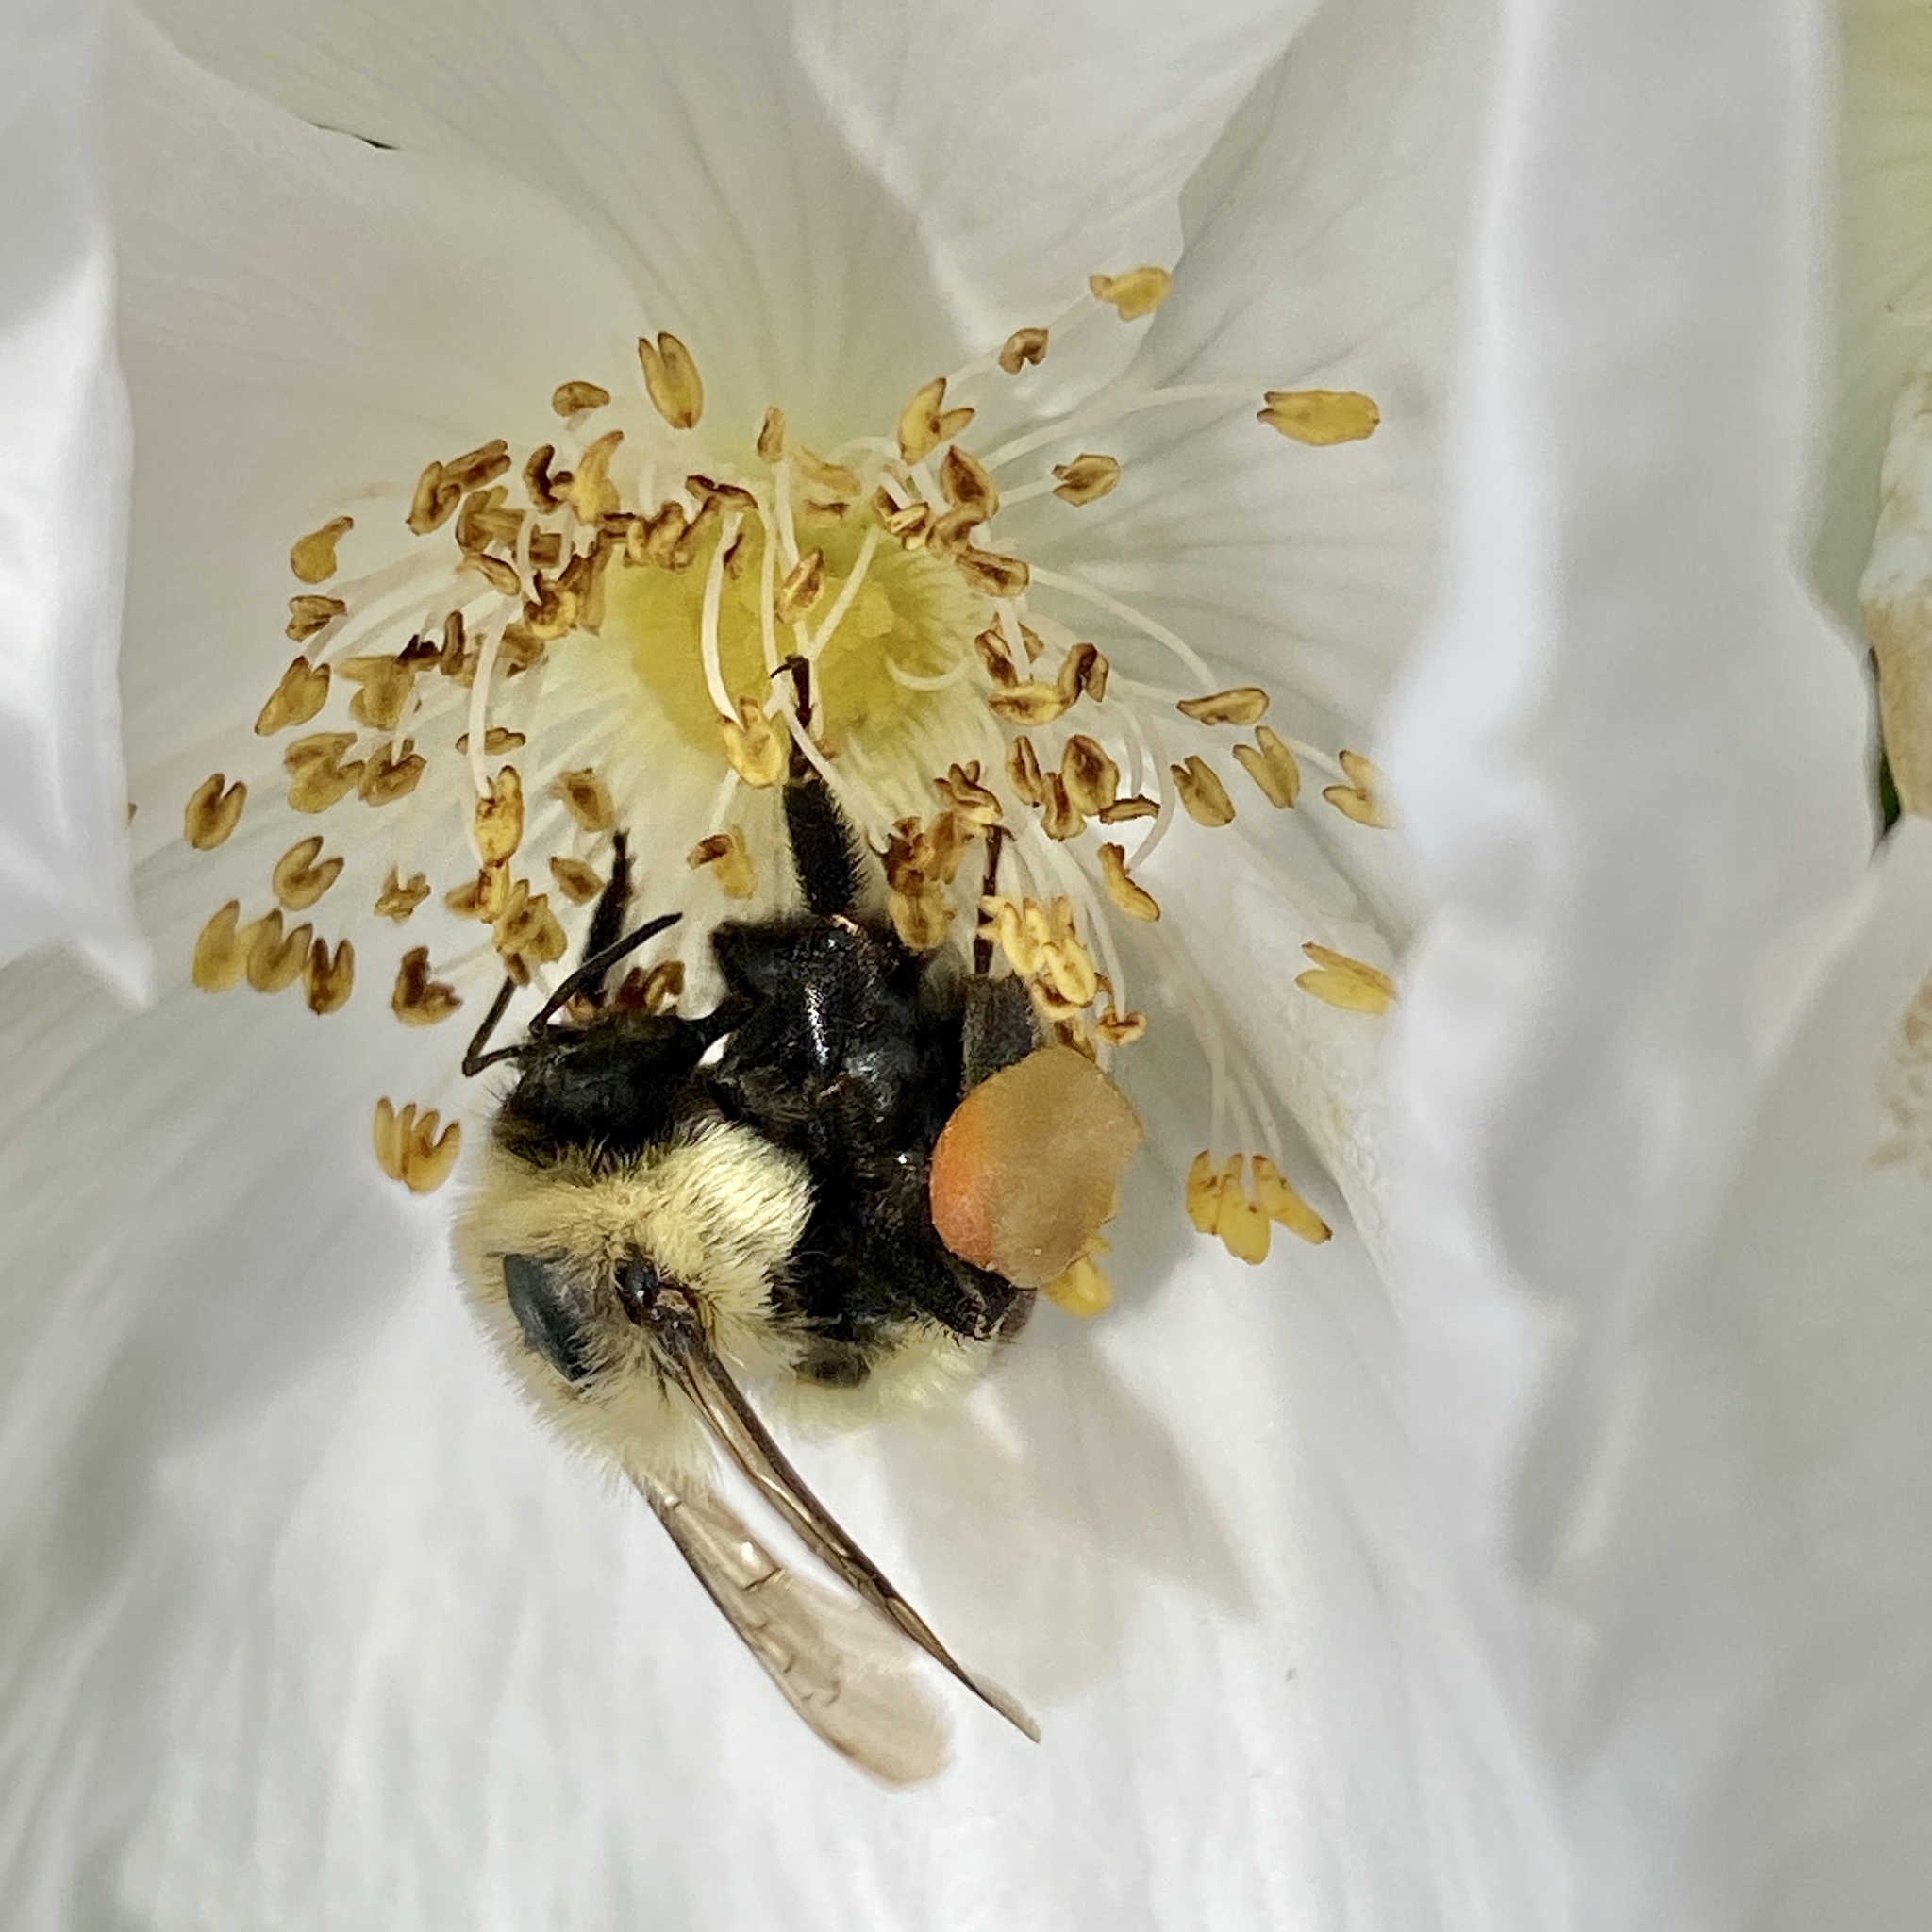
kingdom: Animalia
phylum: Arthropoda
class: Insecta
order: Hymenoptera
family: Apidae
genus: Bombus
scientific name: Bombus impatiens
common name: Common eastern bumble bee
